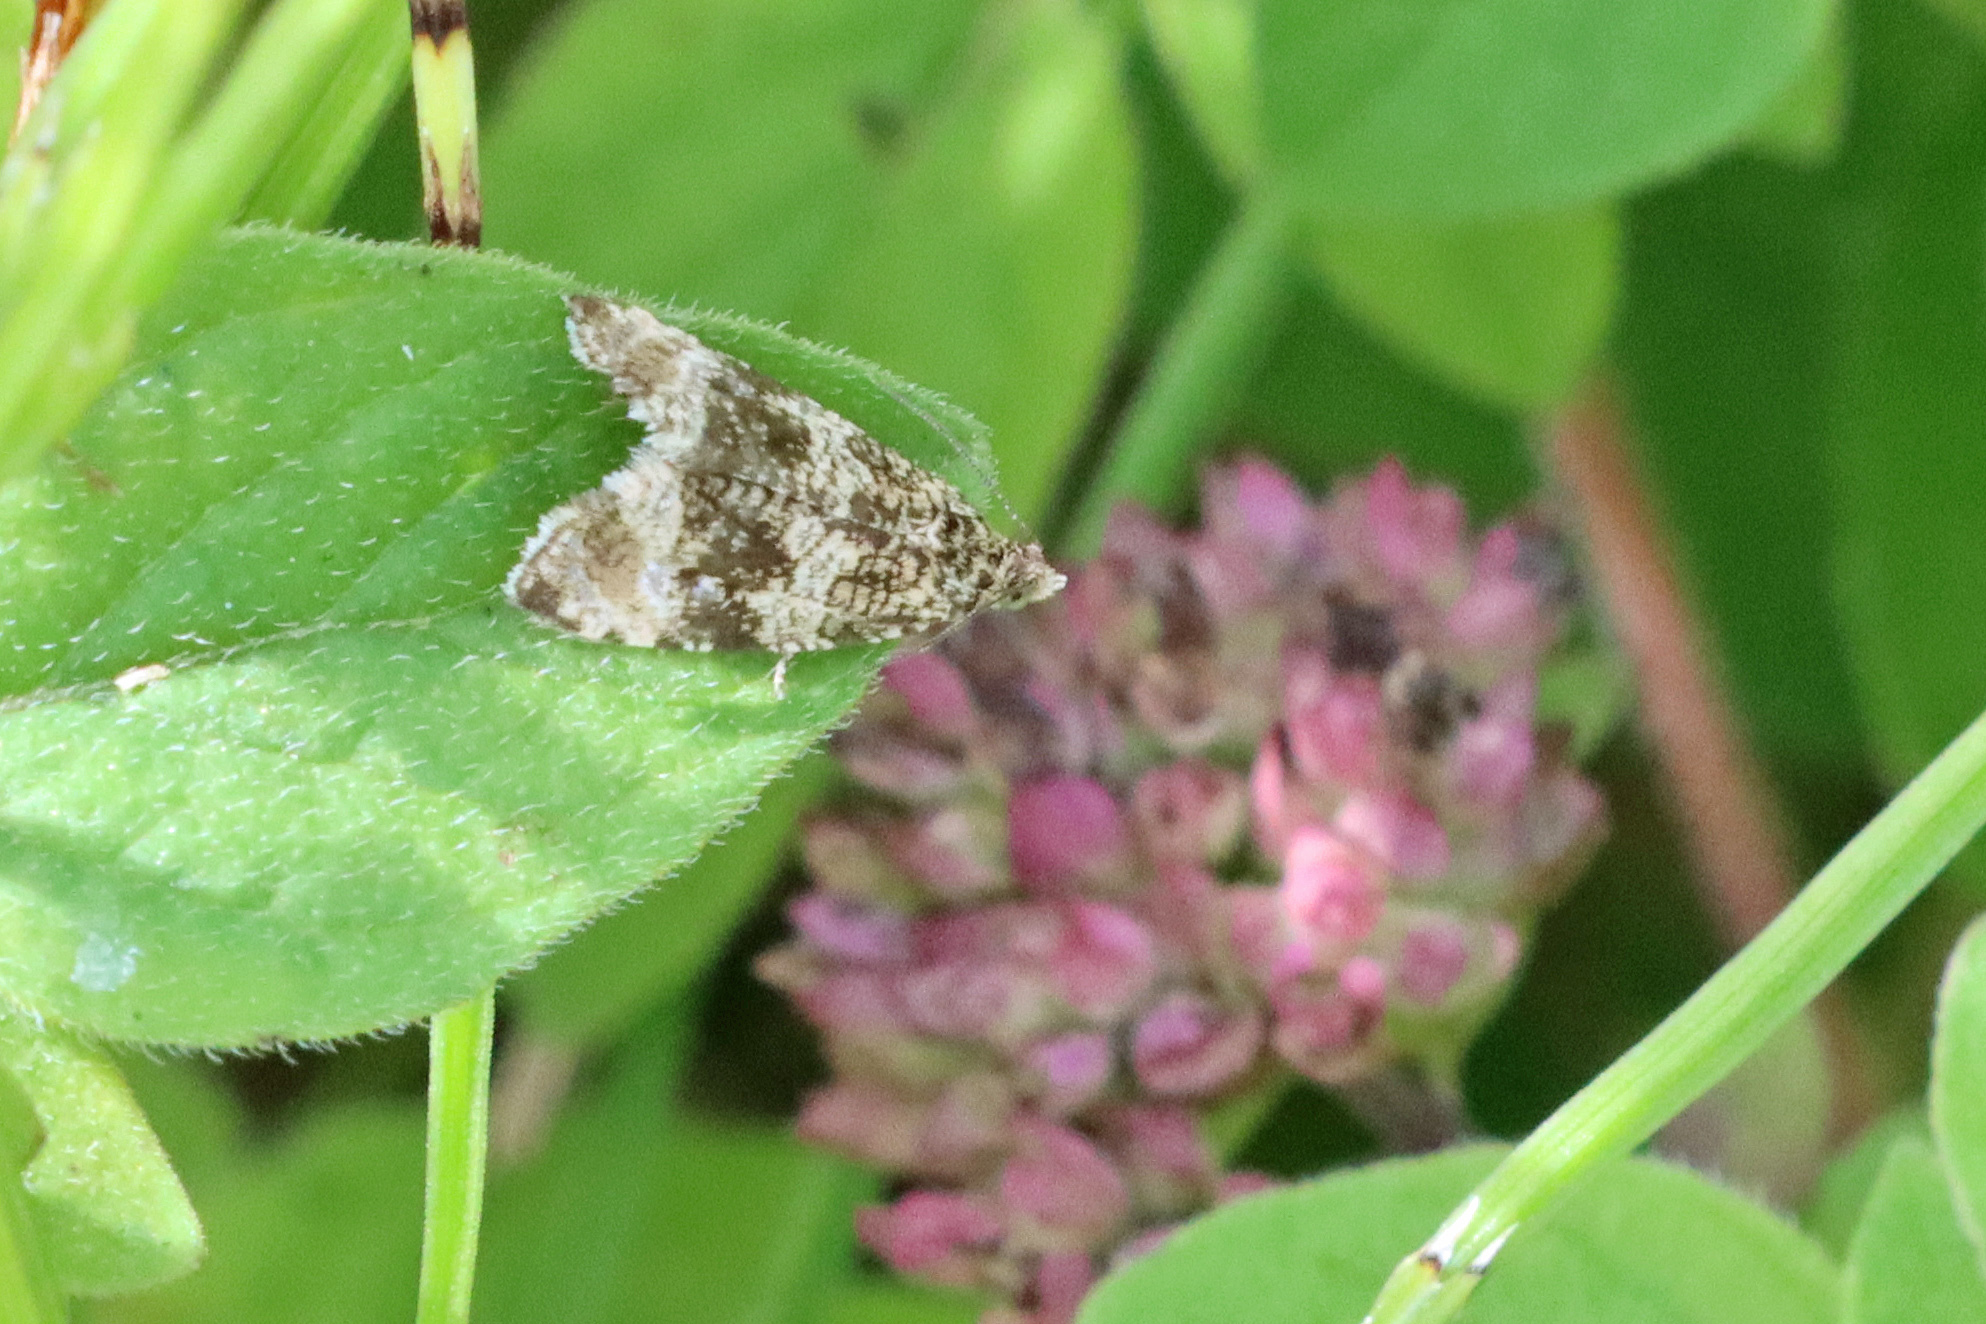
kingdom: Animalia
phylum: Arthropoda
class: Insecta
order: Lepidoptera
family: Tortricidae
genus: Syricoris
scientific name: Syricoris lacunana
